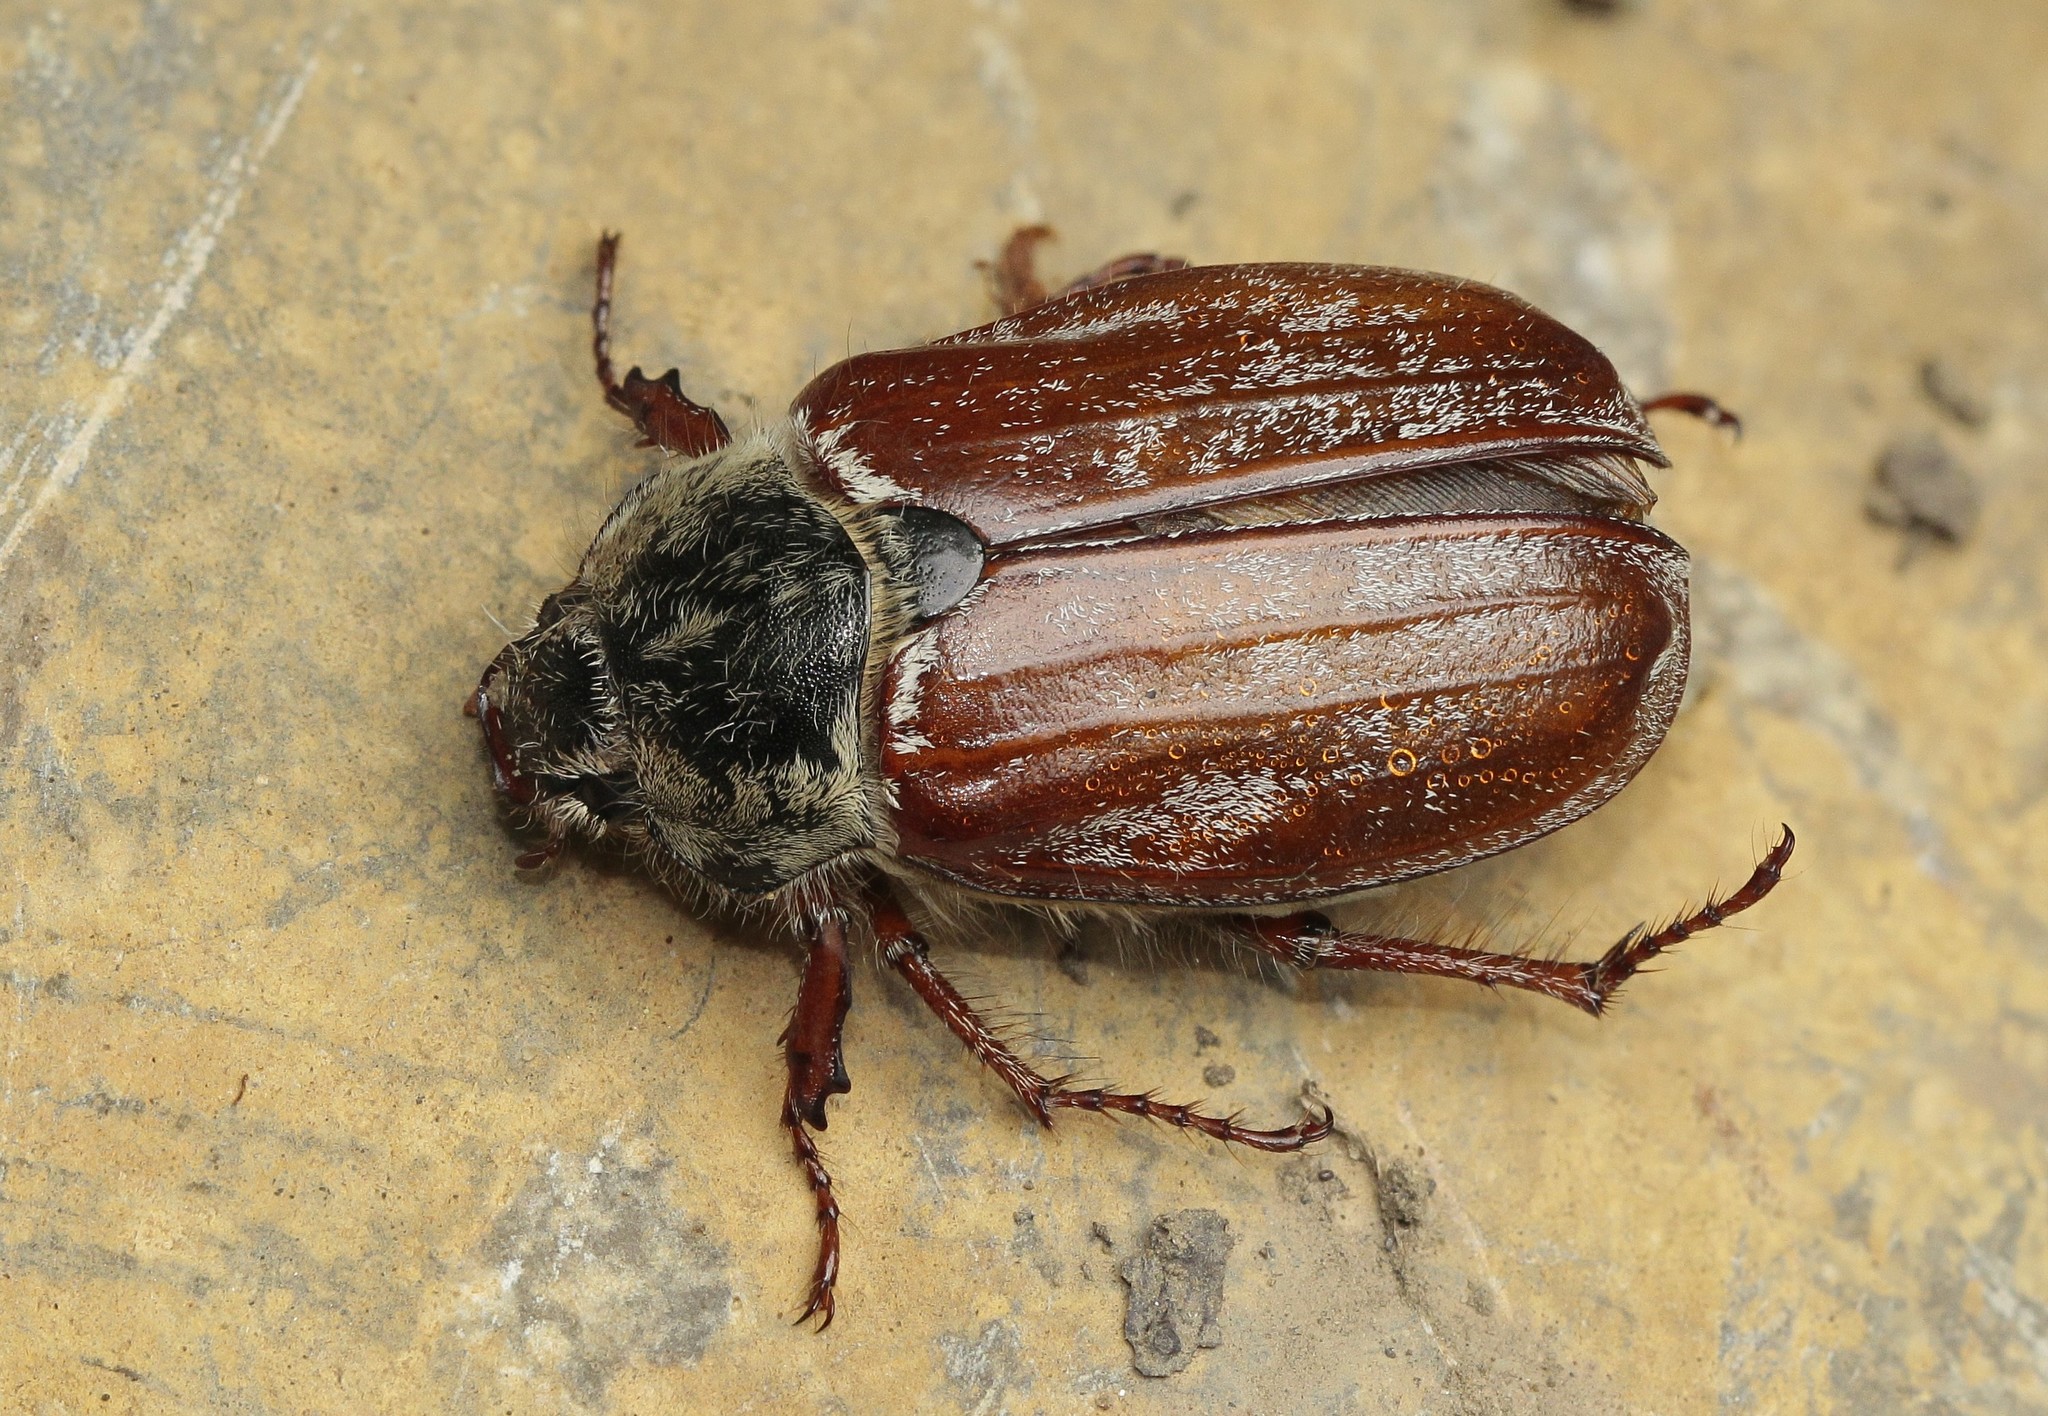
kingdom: Animalia
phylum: Arthropoda
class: Insecta
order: Coleoptera
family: Scarabaeidae
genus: Melolontha
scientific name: Melolontha pectoralis
